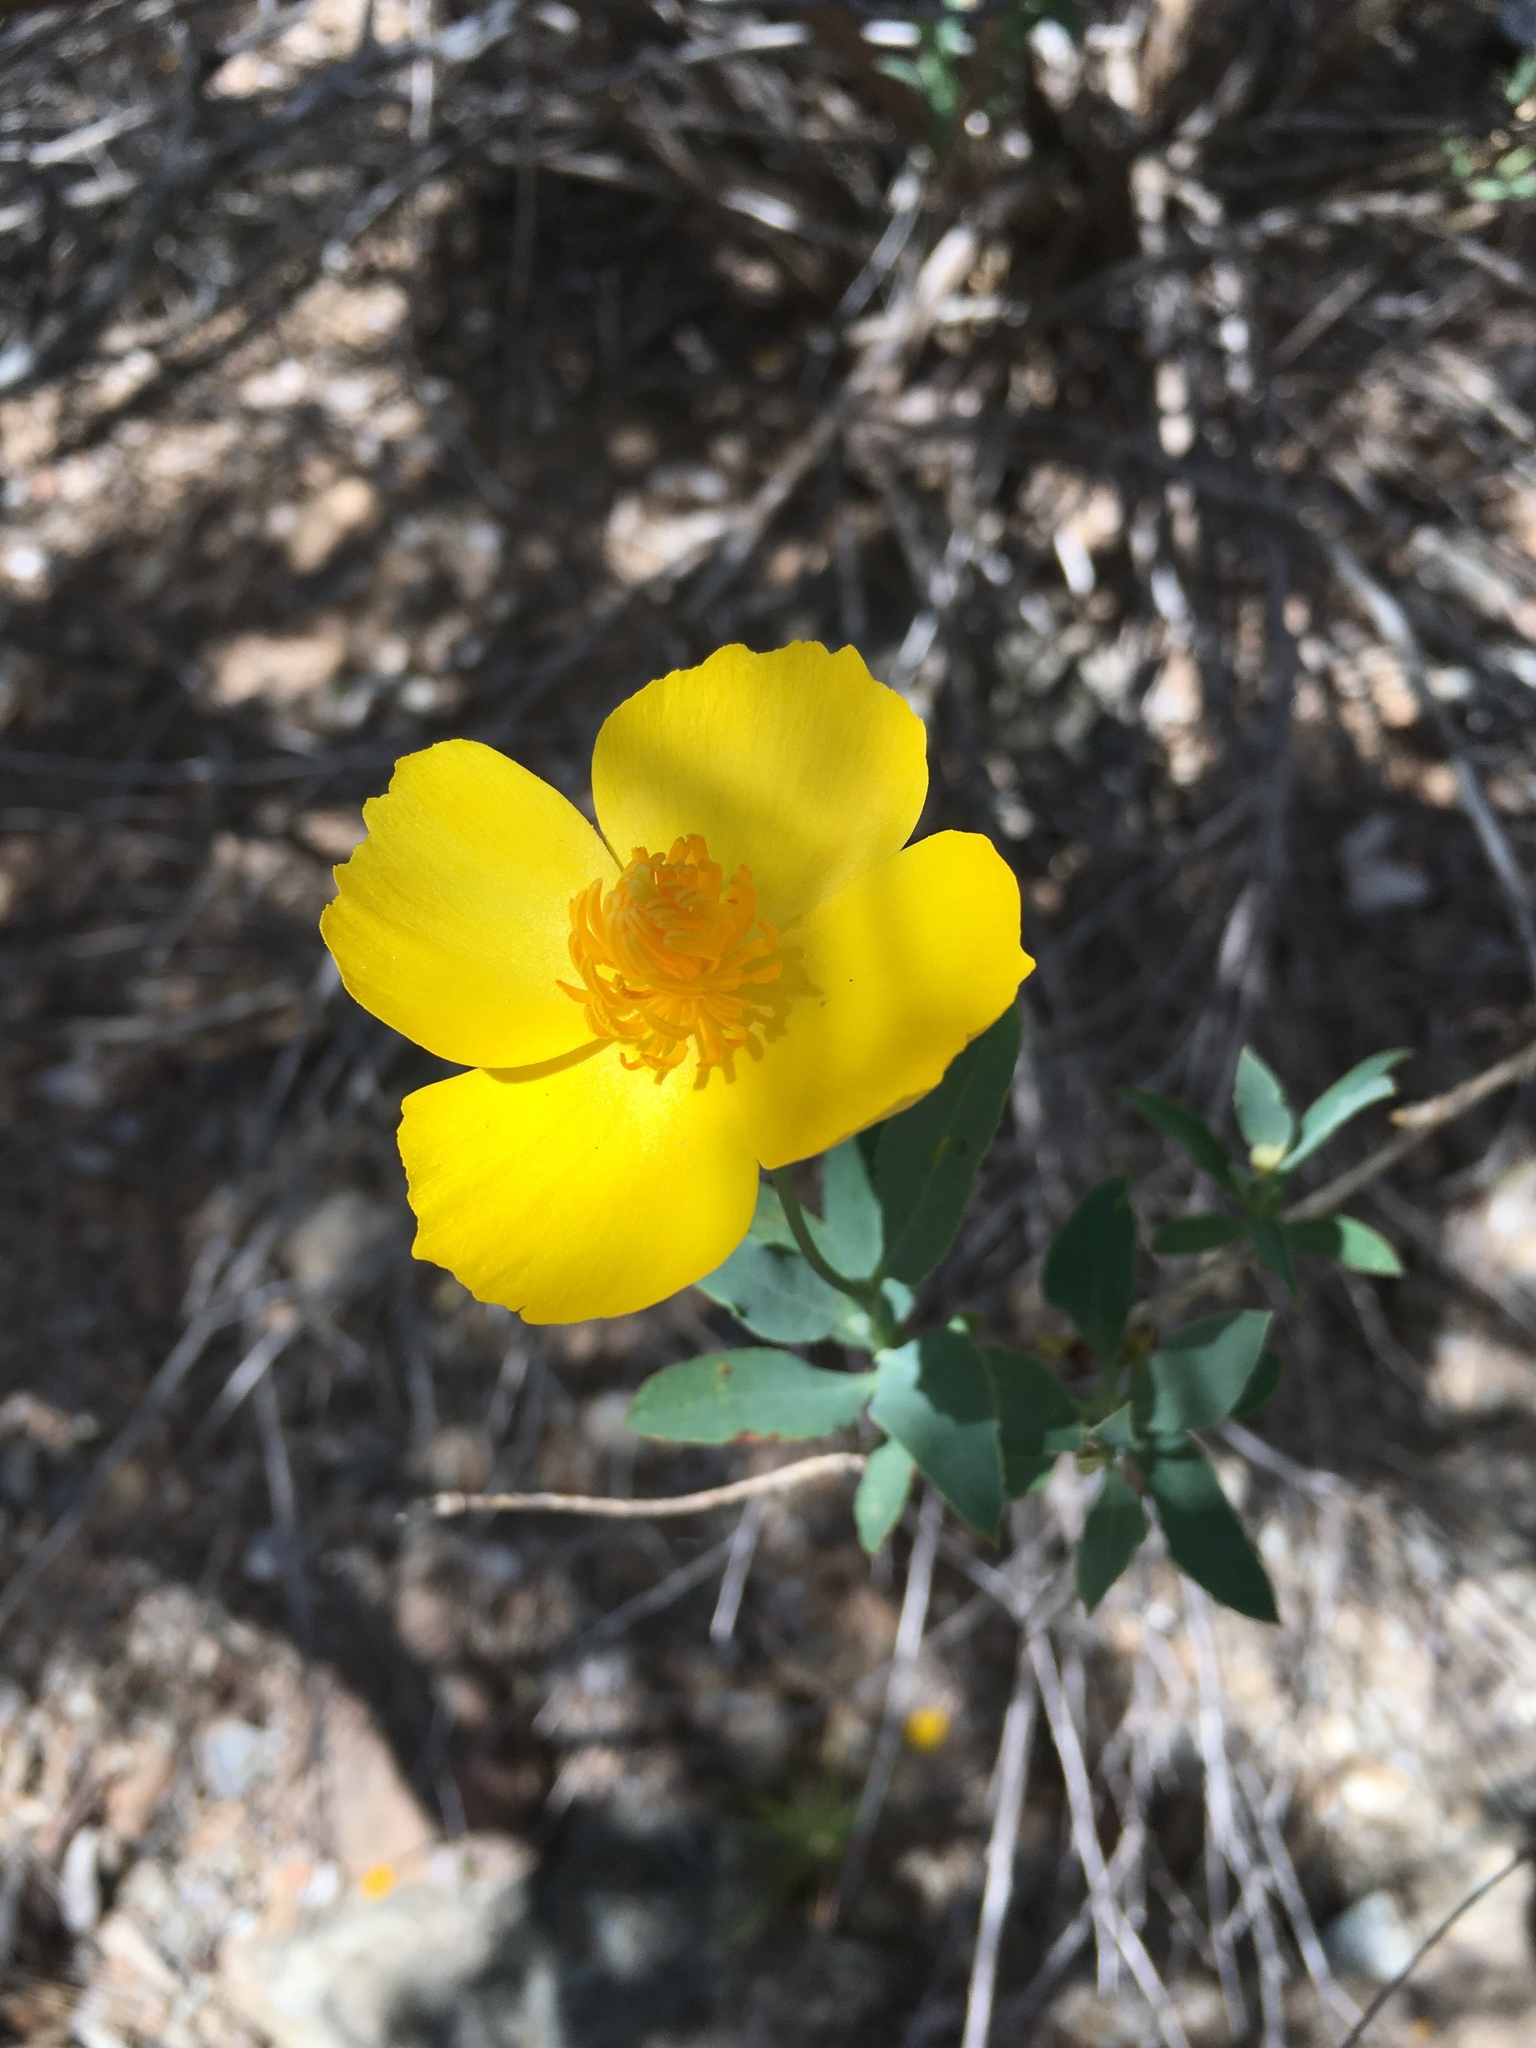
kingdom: Plantae
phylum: Tracheophyta
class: Magnoliopsida
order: Ranunculales
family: Papaveraceae
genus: Dendromecon
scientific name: Dendromecon rigida
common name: Tree poppy
